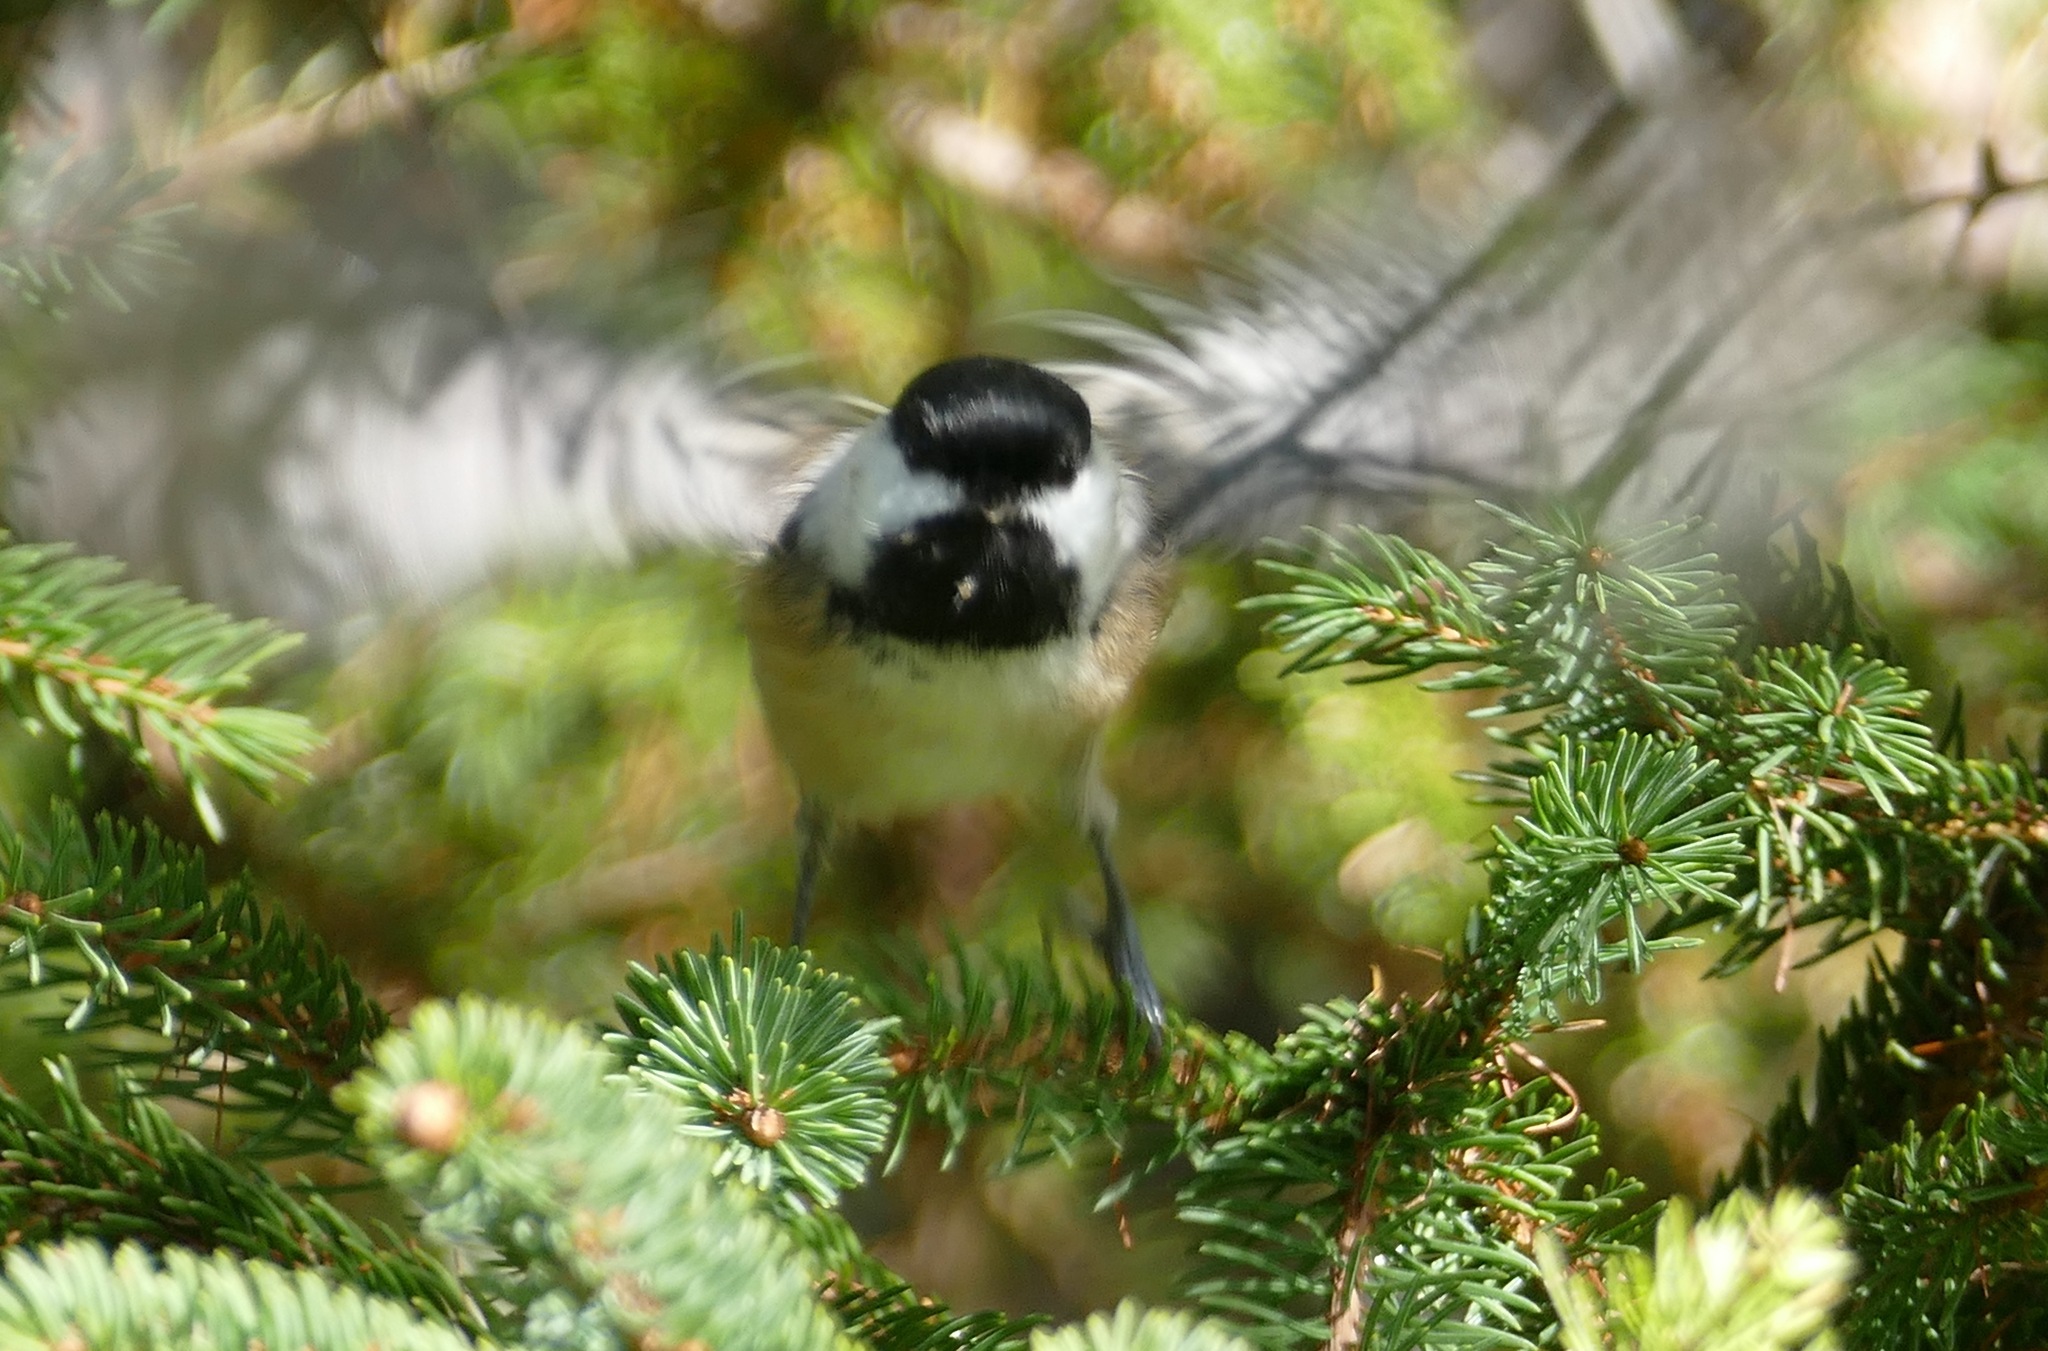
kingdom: Animalia
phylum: Chordata
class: Aves
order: Passeriformes
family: Paridae
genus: Poecile
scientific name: Poecile atricapillus
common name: Black-capped chickadee
